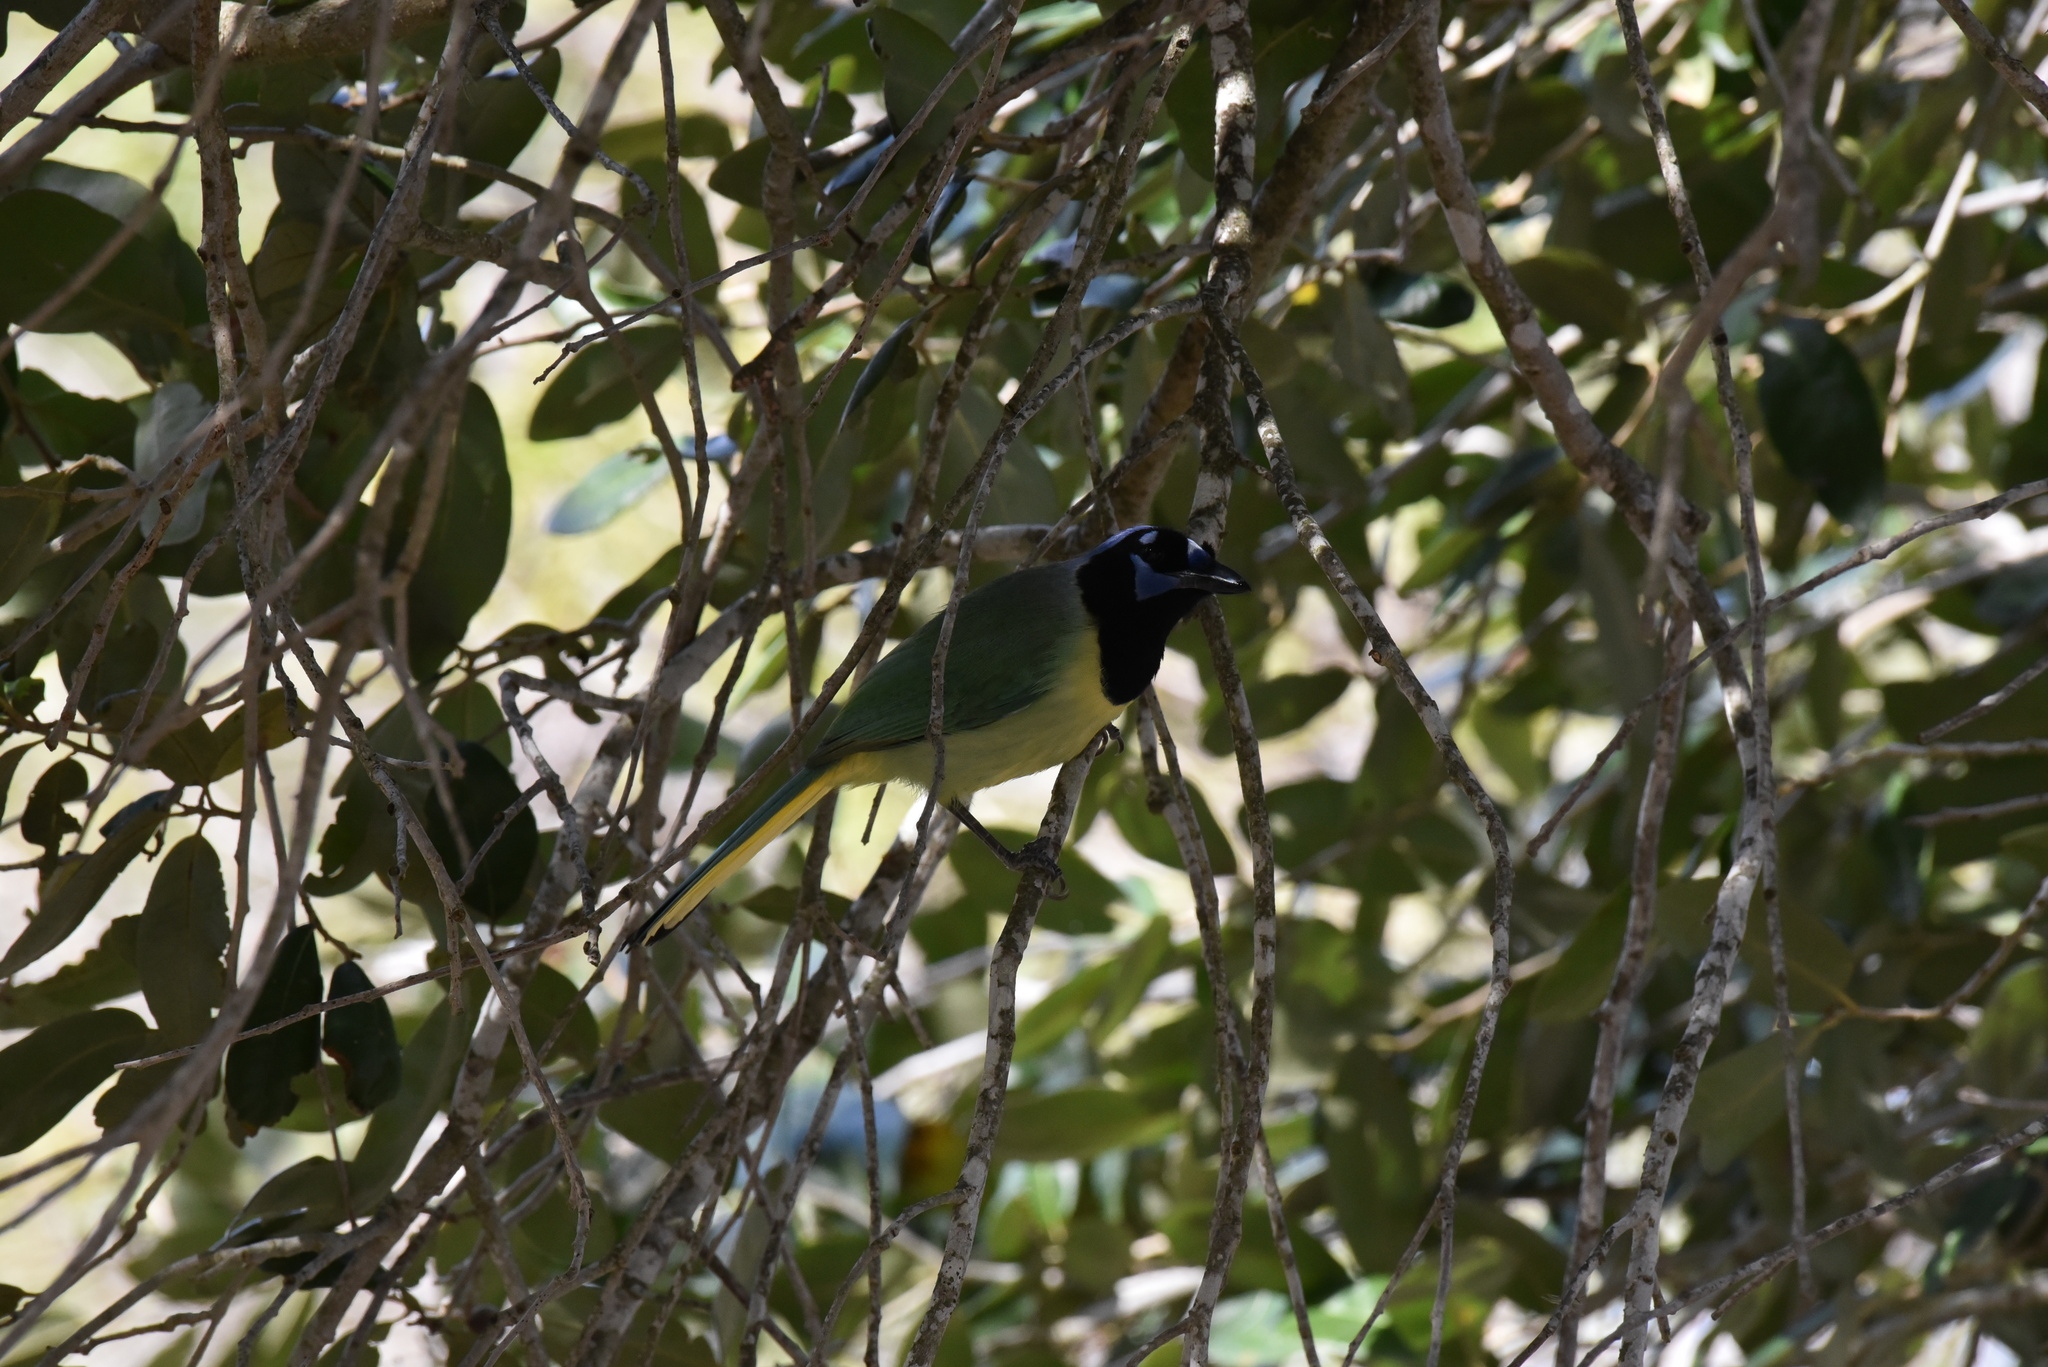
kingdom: Animalia
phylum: Chordata
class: Aves
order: Passeriformes
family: Corvidae
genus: Cyanocorax
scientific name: Cyanocorax yncas
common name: Green jay
